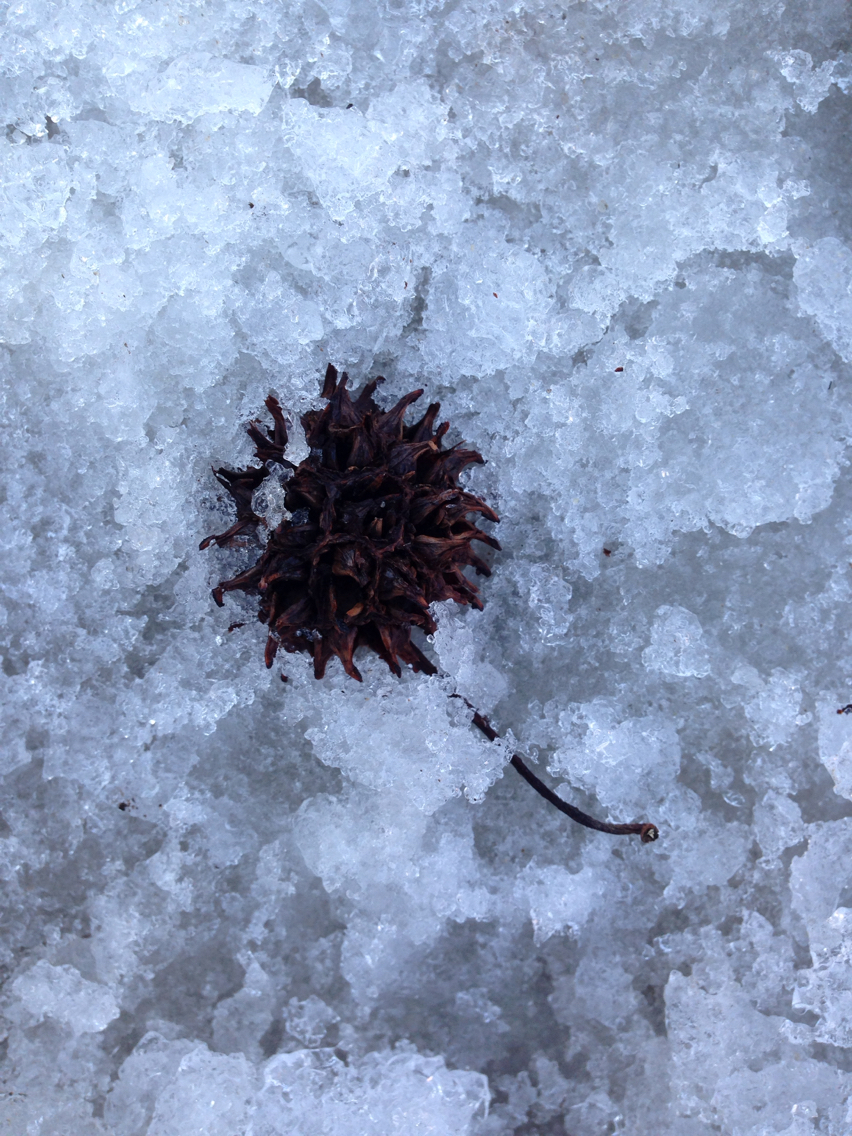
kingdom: Plantae
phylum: Tracheophyta
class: Magnoliopsida
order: Saxifragales
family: Altingiaceae
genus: Liquidambar
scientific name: Liquidambar styraciflua
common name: Sweet gum
